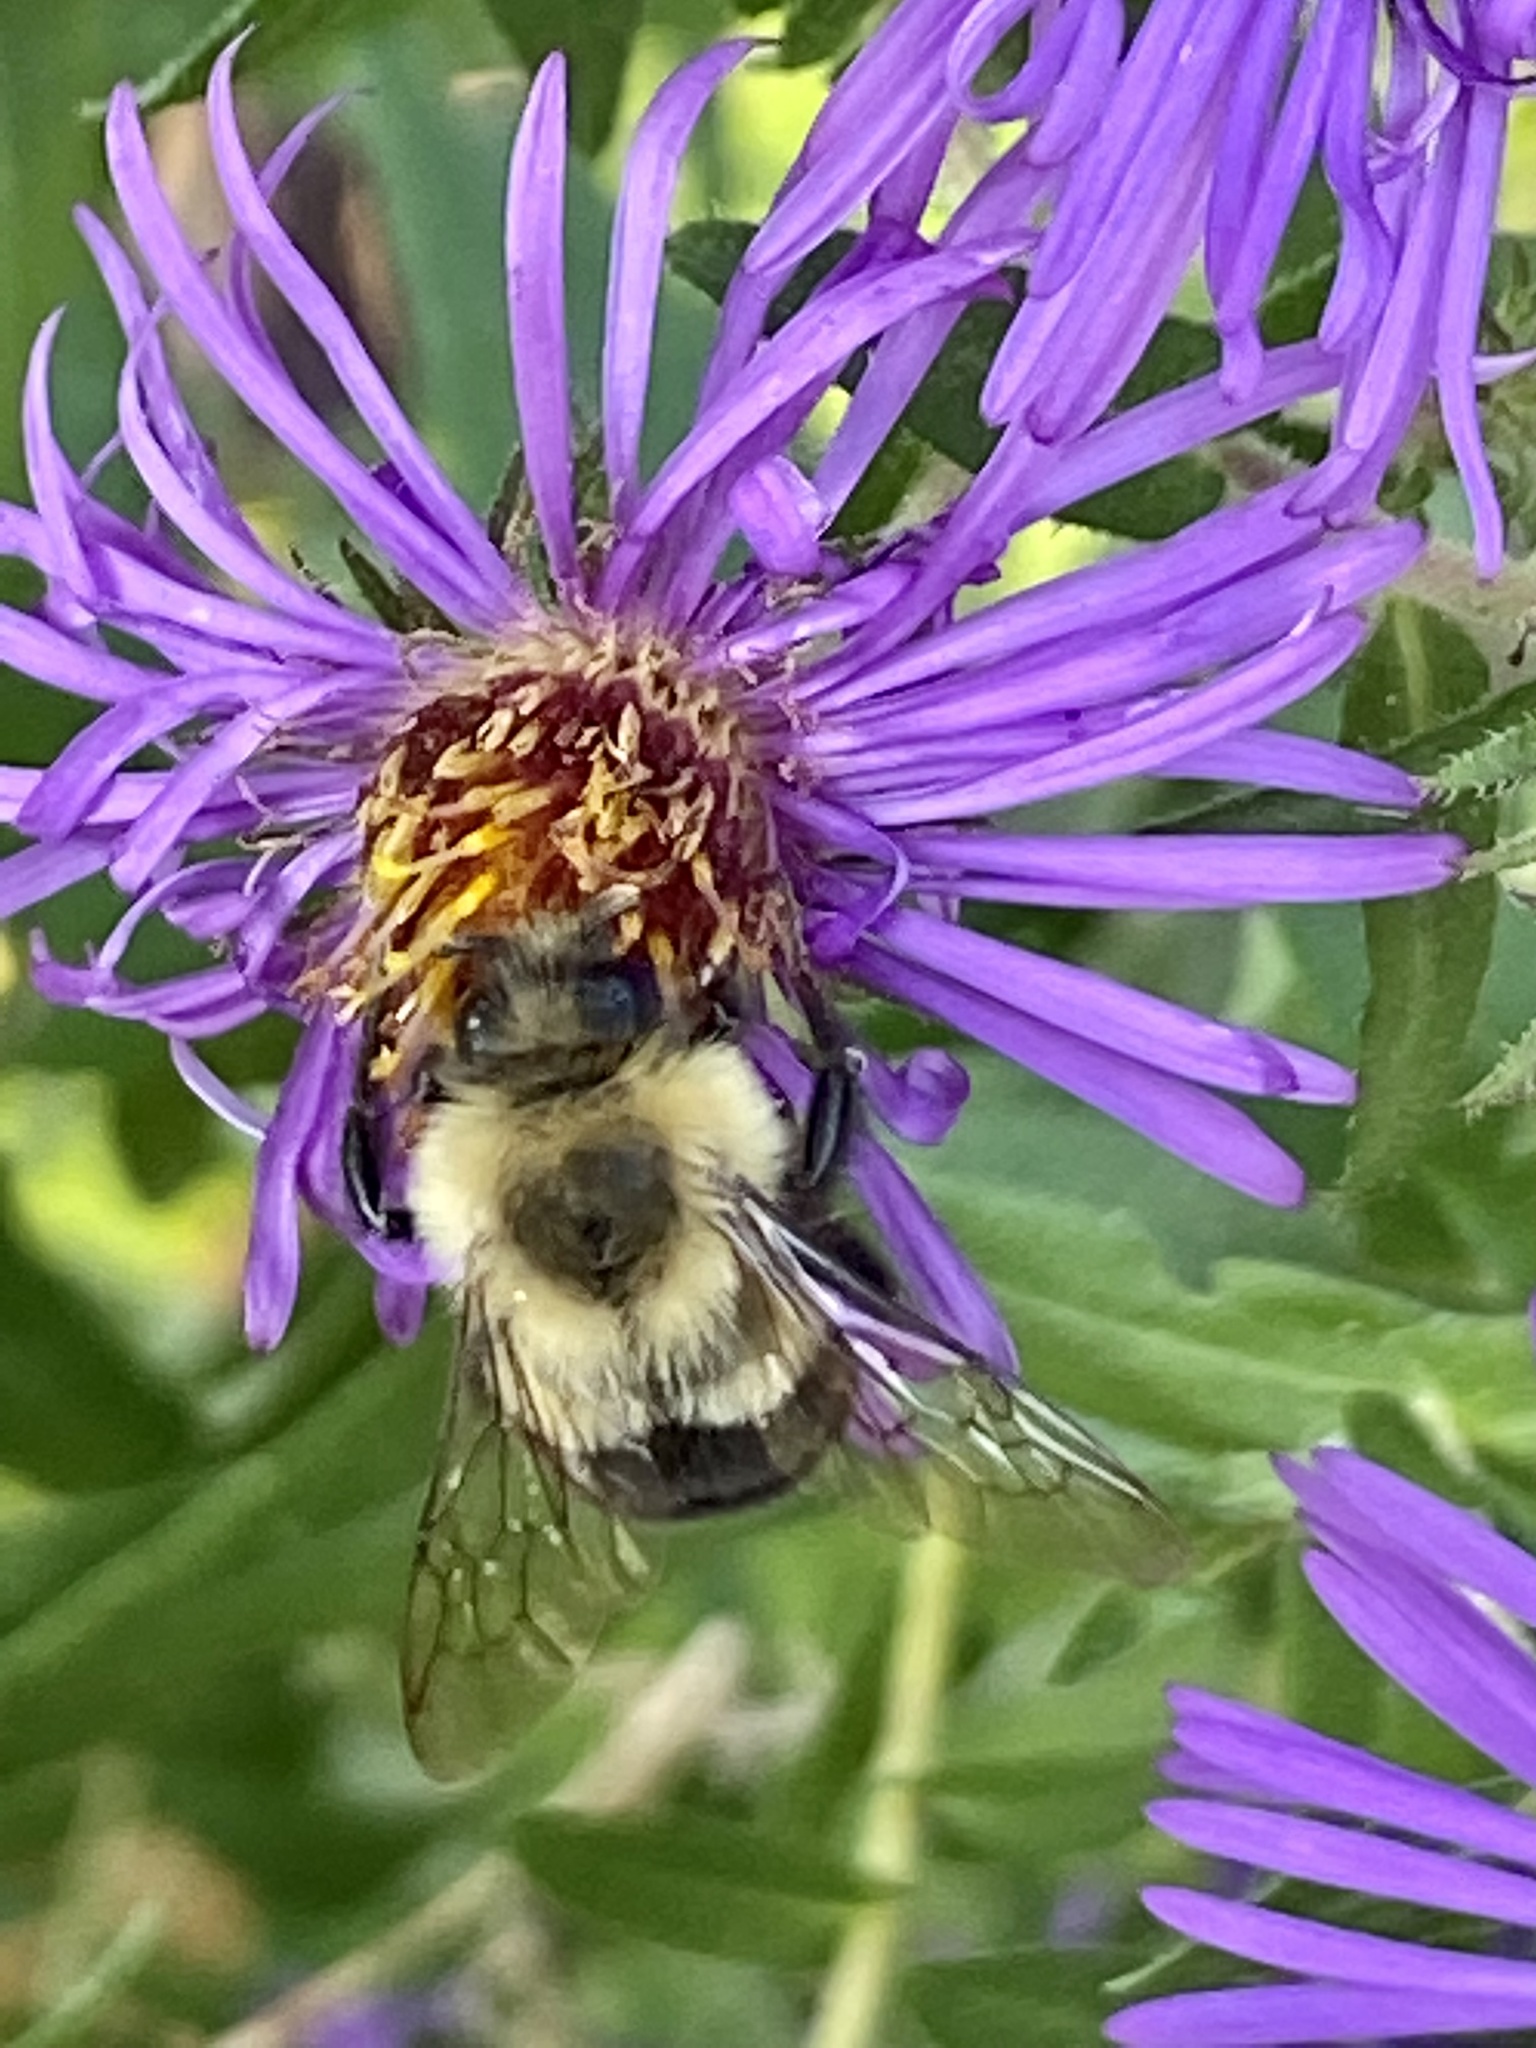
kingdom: Animalia
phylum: Arthropoda
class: Insecta
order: Hymenoptera
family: Apidae
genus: Bombus
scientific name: Bombus impatiens
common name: Common eastern bumble bee
